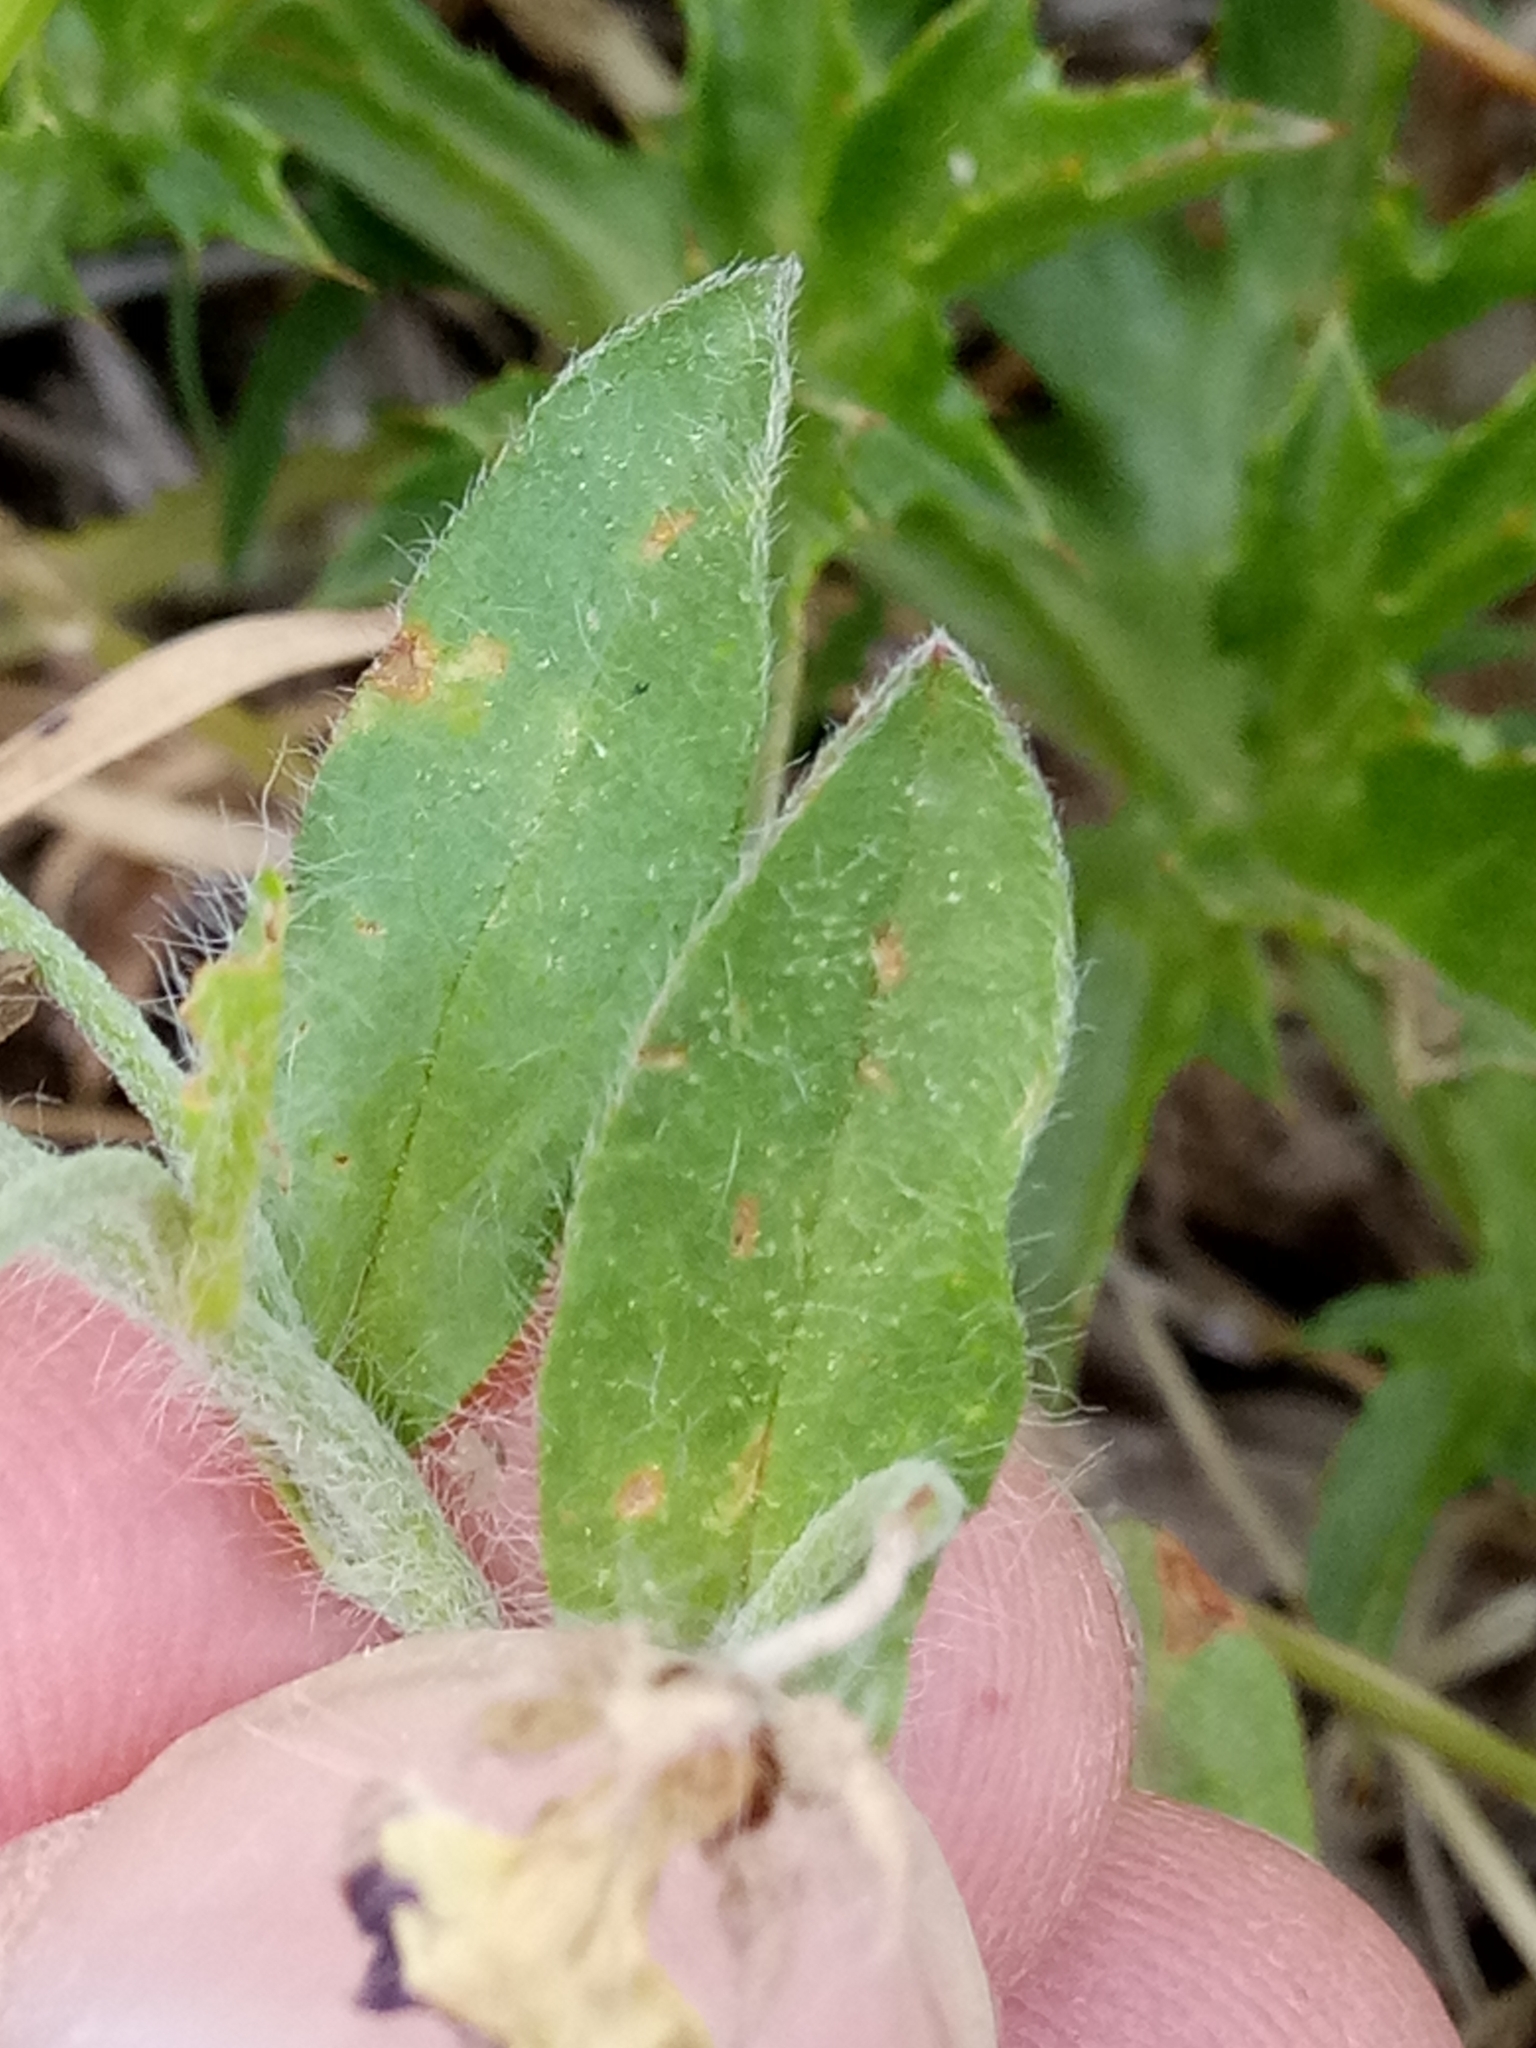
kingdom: Plantae
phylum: Tracheophyta
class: Magnoliopsida
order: Solanales
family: Convolvulaceae
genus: Convolvulus
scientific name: Convolvulus tricolor
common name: Dwarf morning-glory
